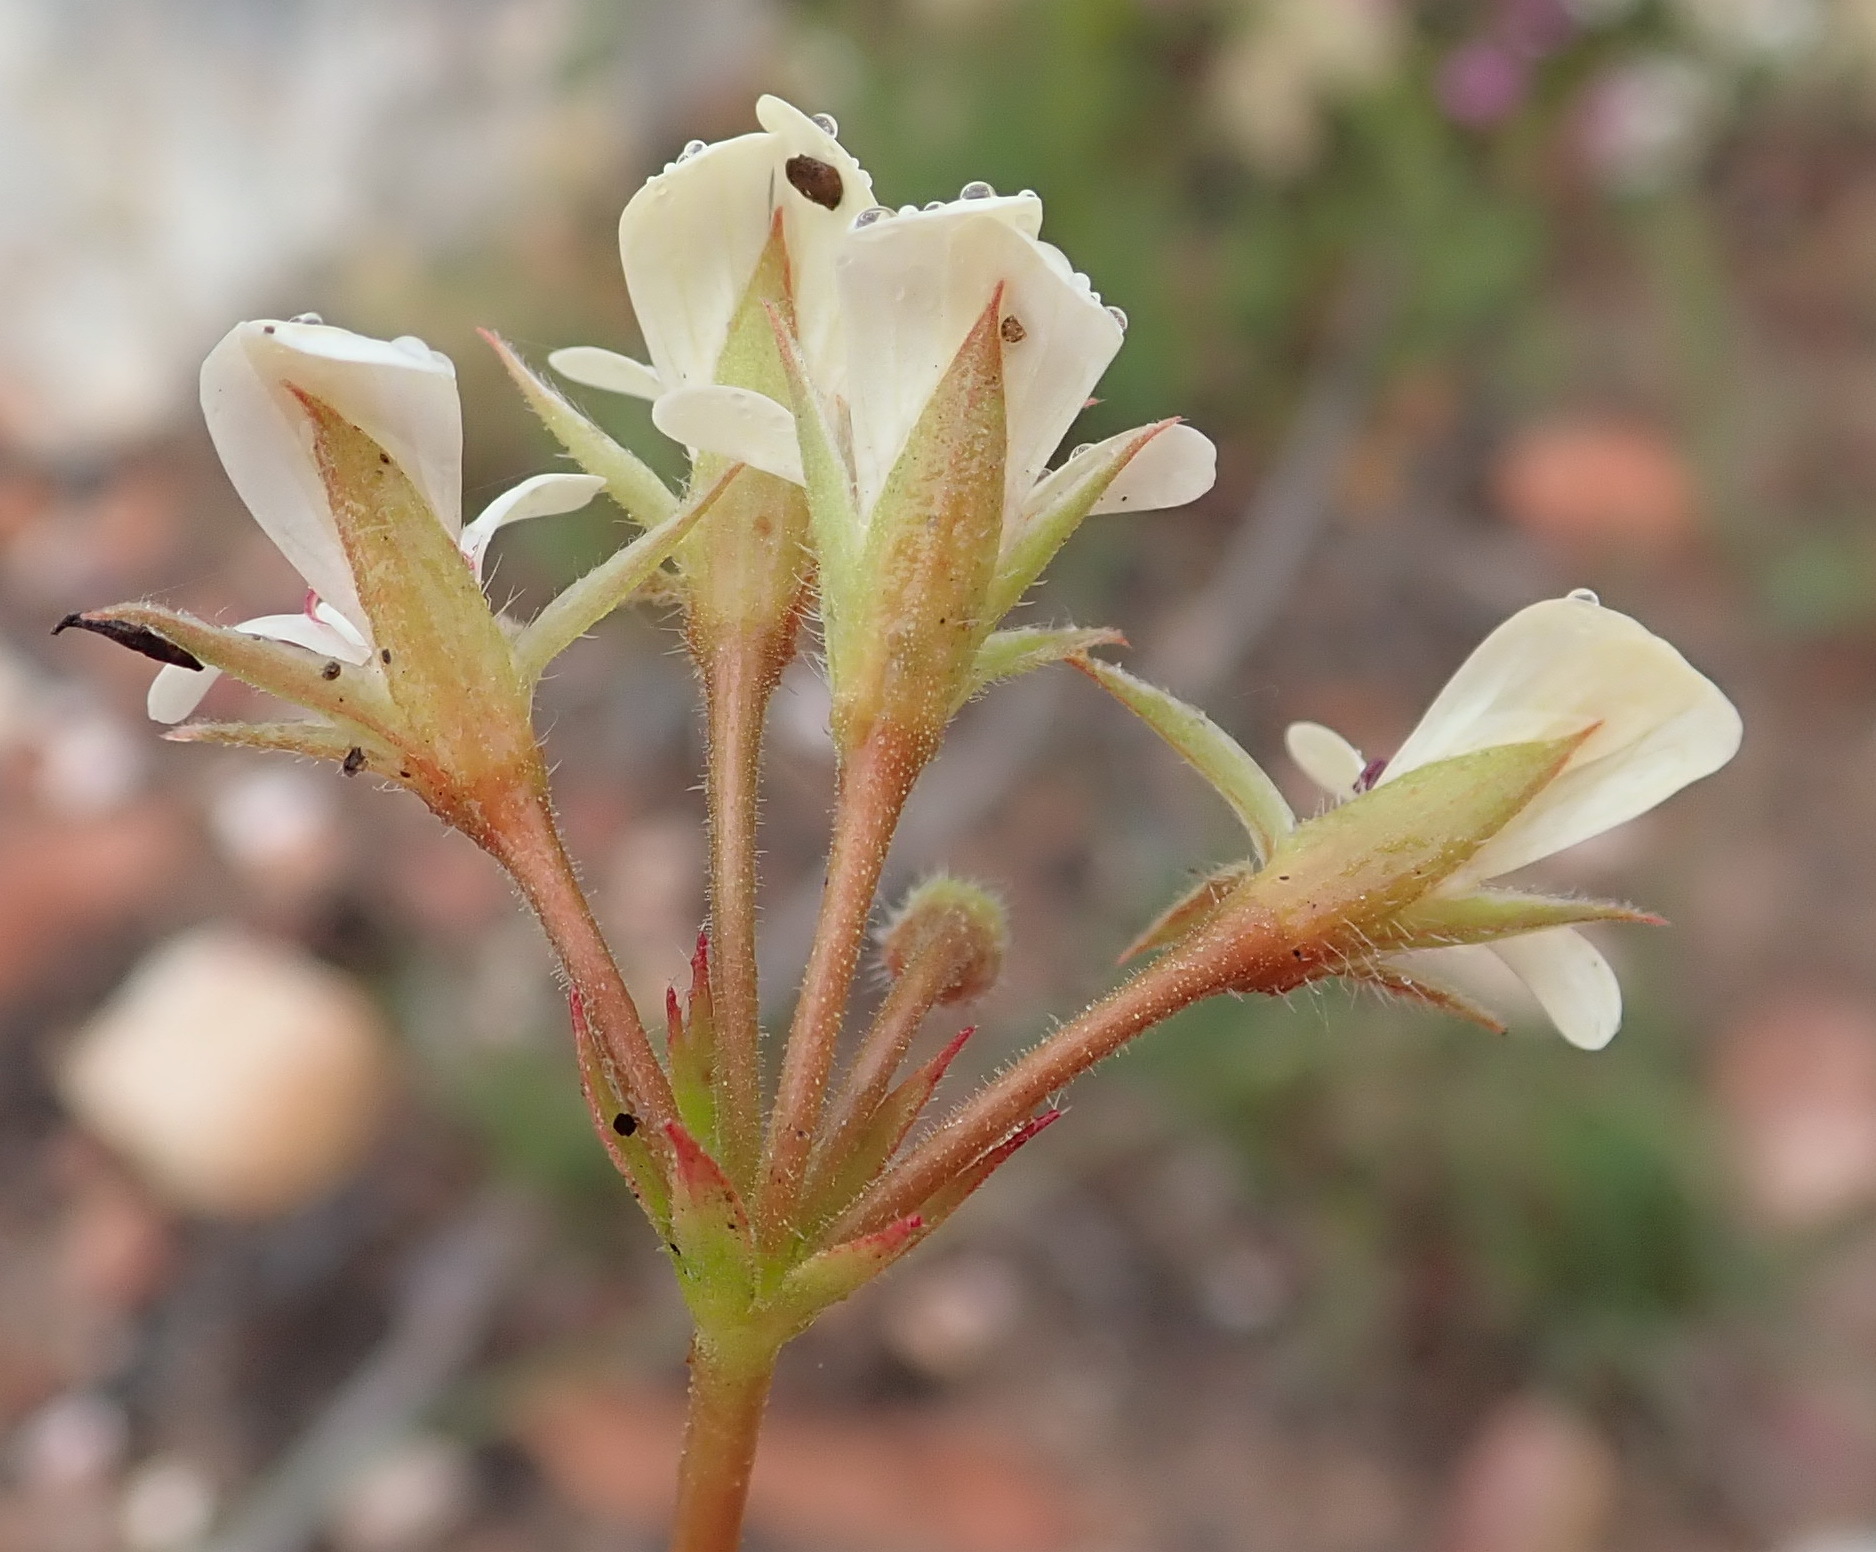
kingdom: Plantae
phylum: Tracheophyta
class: Magnoliopsida
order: Geraniales
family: Geraniaceae
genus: Pelargonium
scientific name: Pelargonium elongatum
